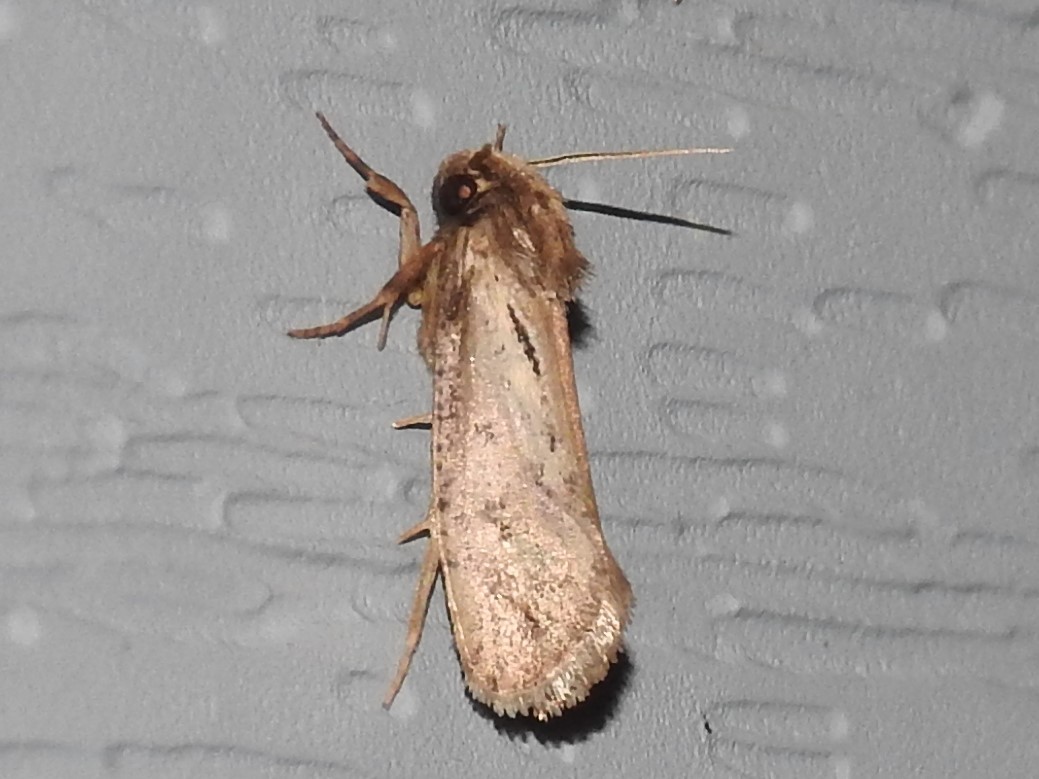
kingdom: Animalia
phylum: Arthropoda
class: Insecta
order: Lepidoptera
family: Tineidae
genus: Acrolophus
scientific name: Acrolophus popeanella
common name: Clemens' grass tubeworm moth
